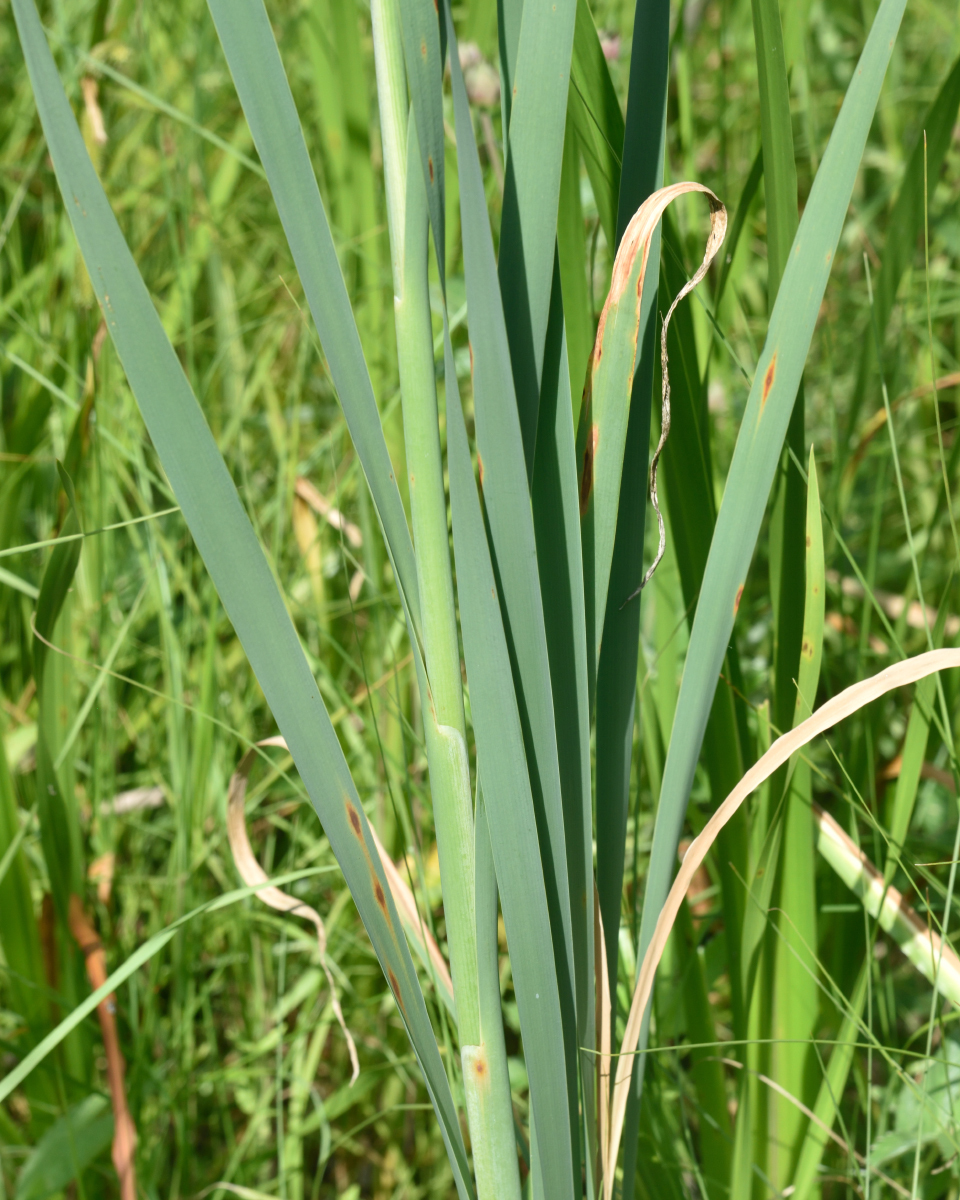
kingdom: Plantae
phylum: Tracheophyta
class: Liliopsida
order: Poales
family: Typhaceae
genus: Typha
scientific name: Typha latifolia
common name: Broadleaf cattail
